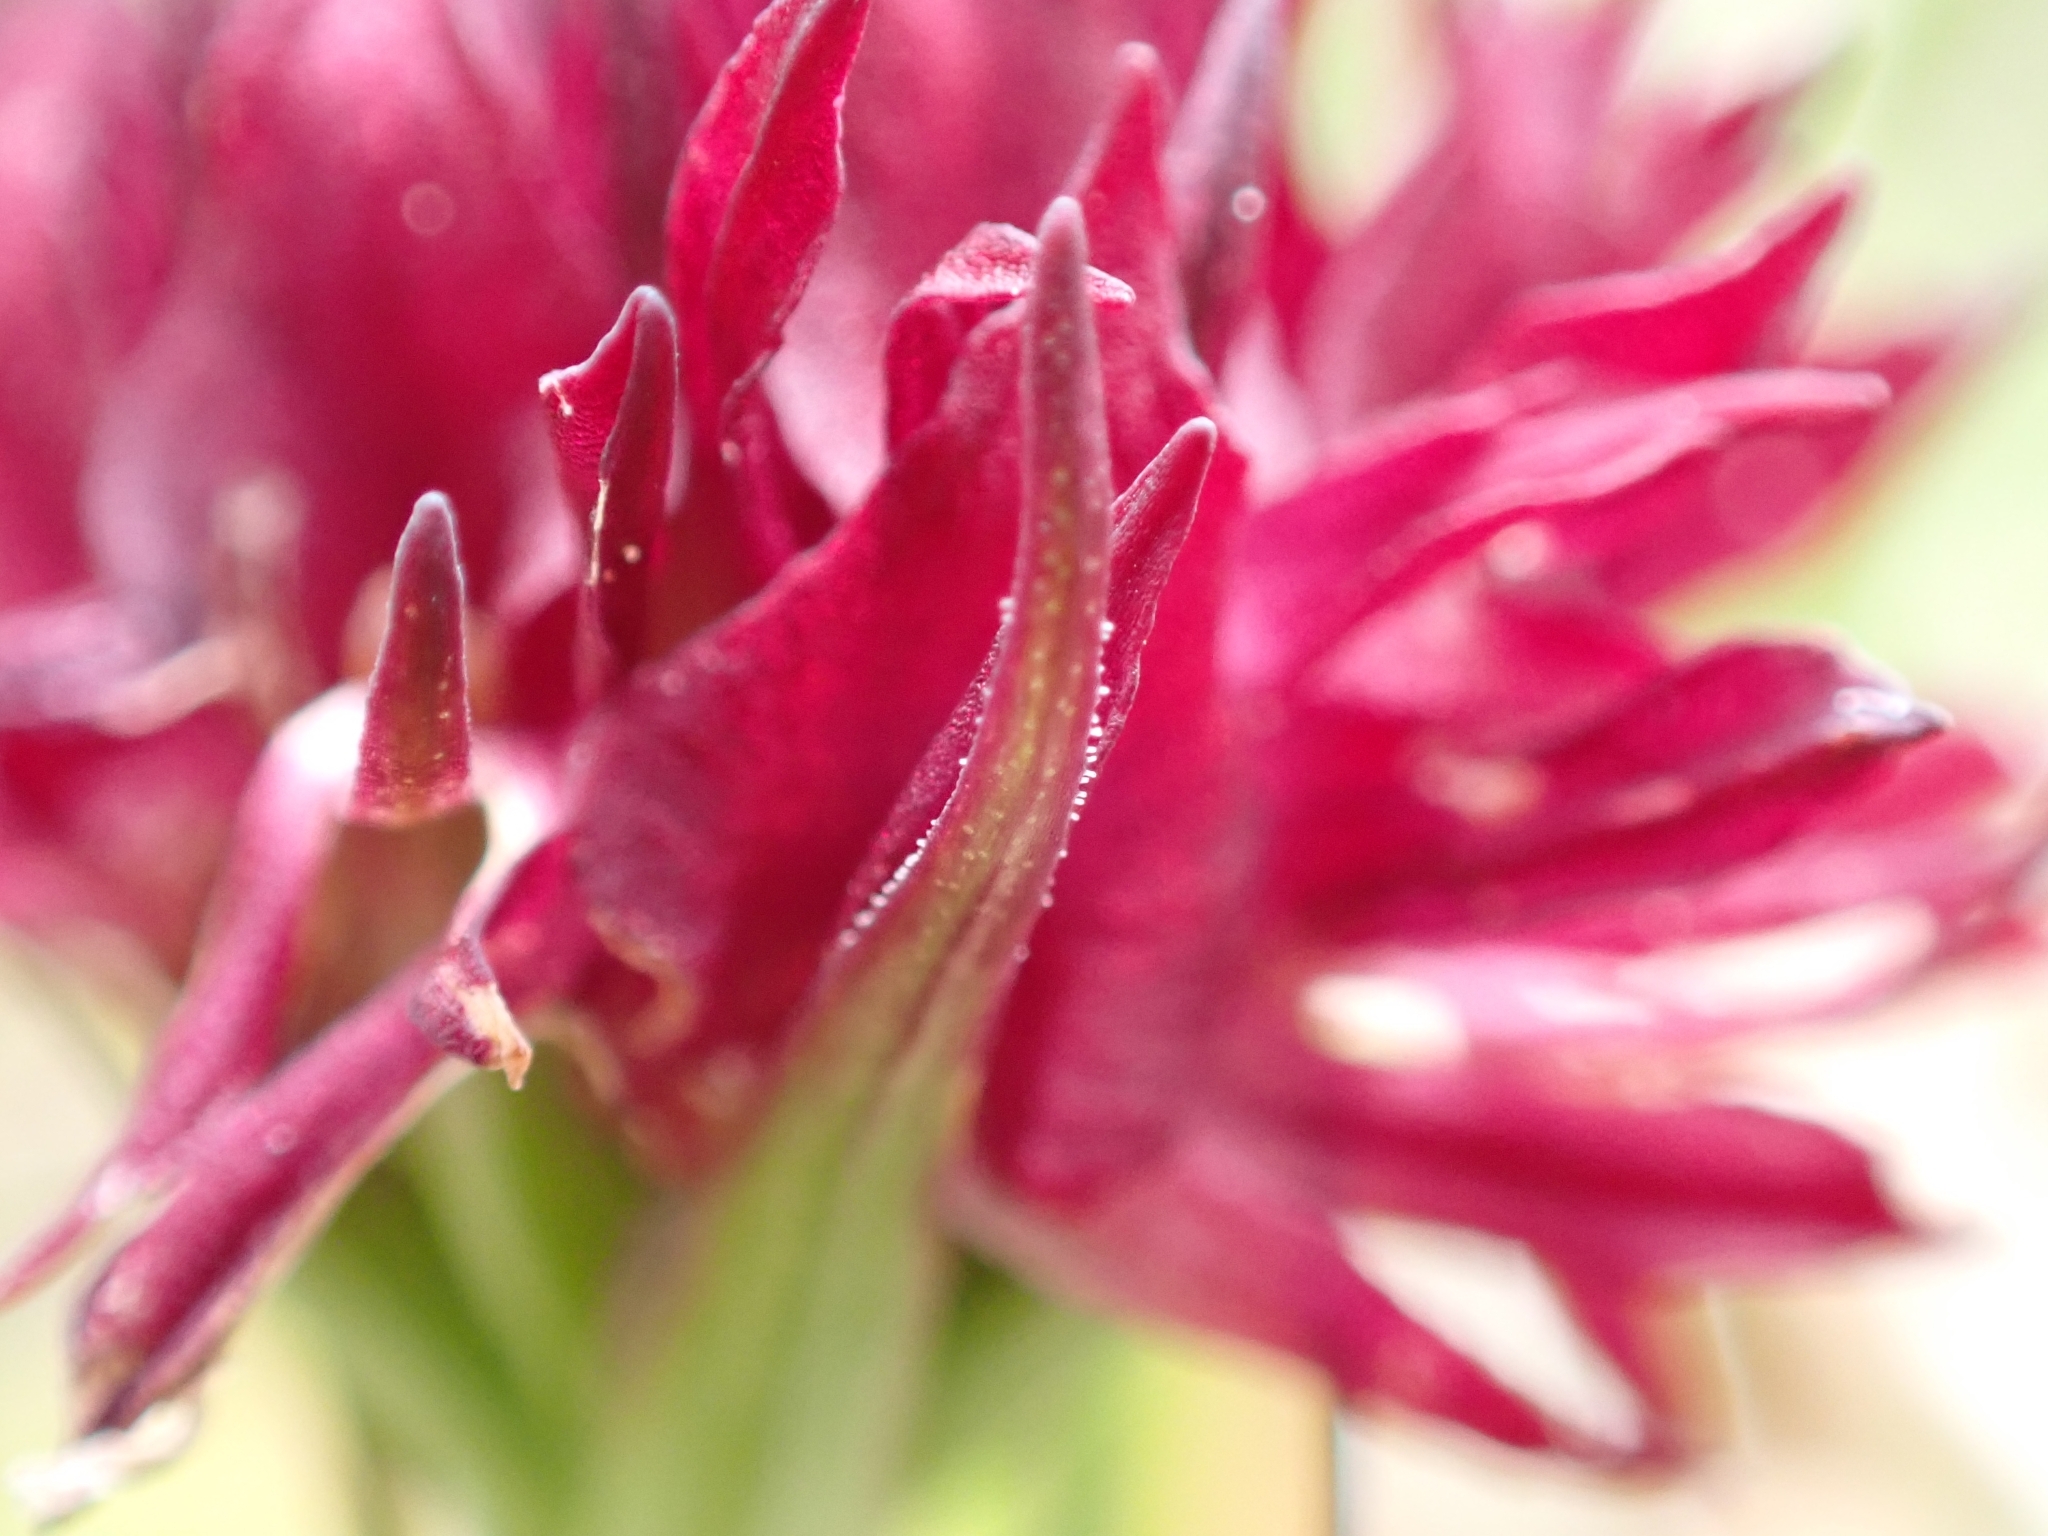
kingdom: Plantae
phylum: Tracheophyta
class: Liliopsida
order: Asparagales
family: Orchidaceae
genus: Gymnadenia
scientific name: Gymnadenia rhellicani
